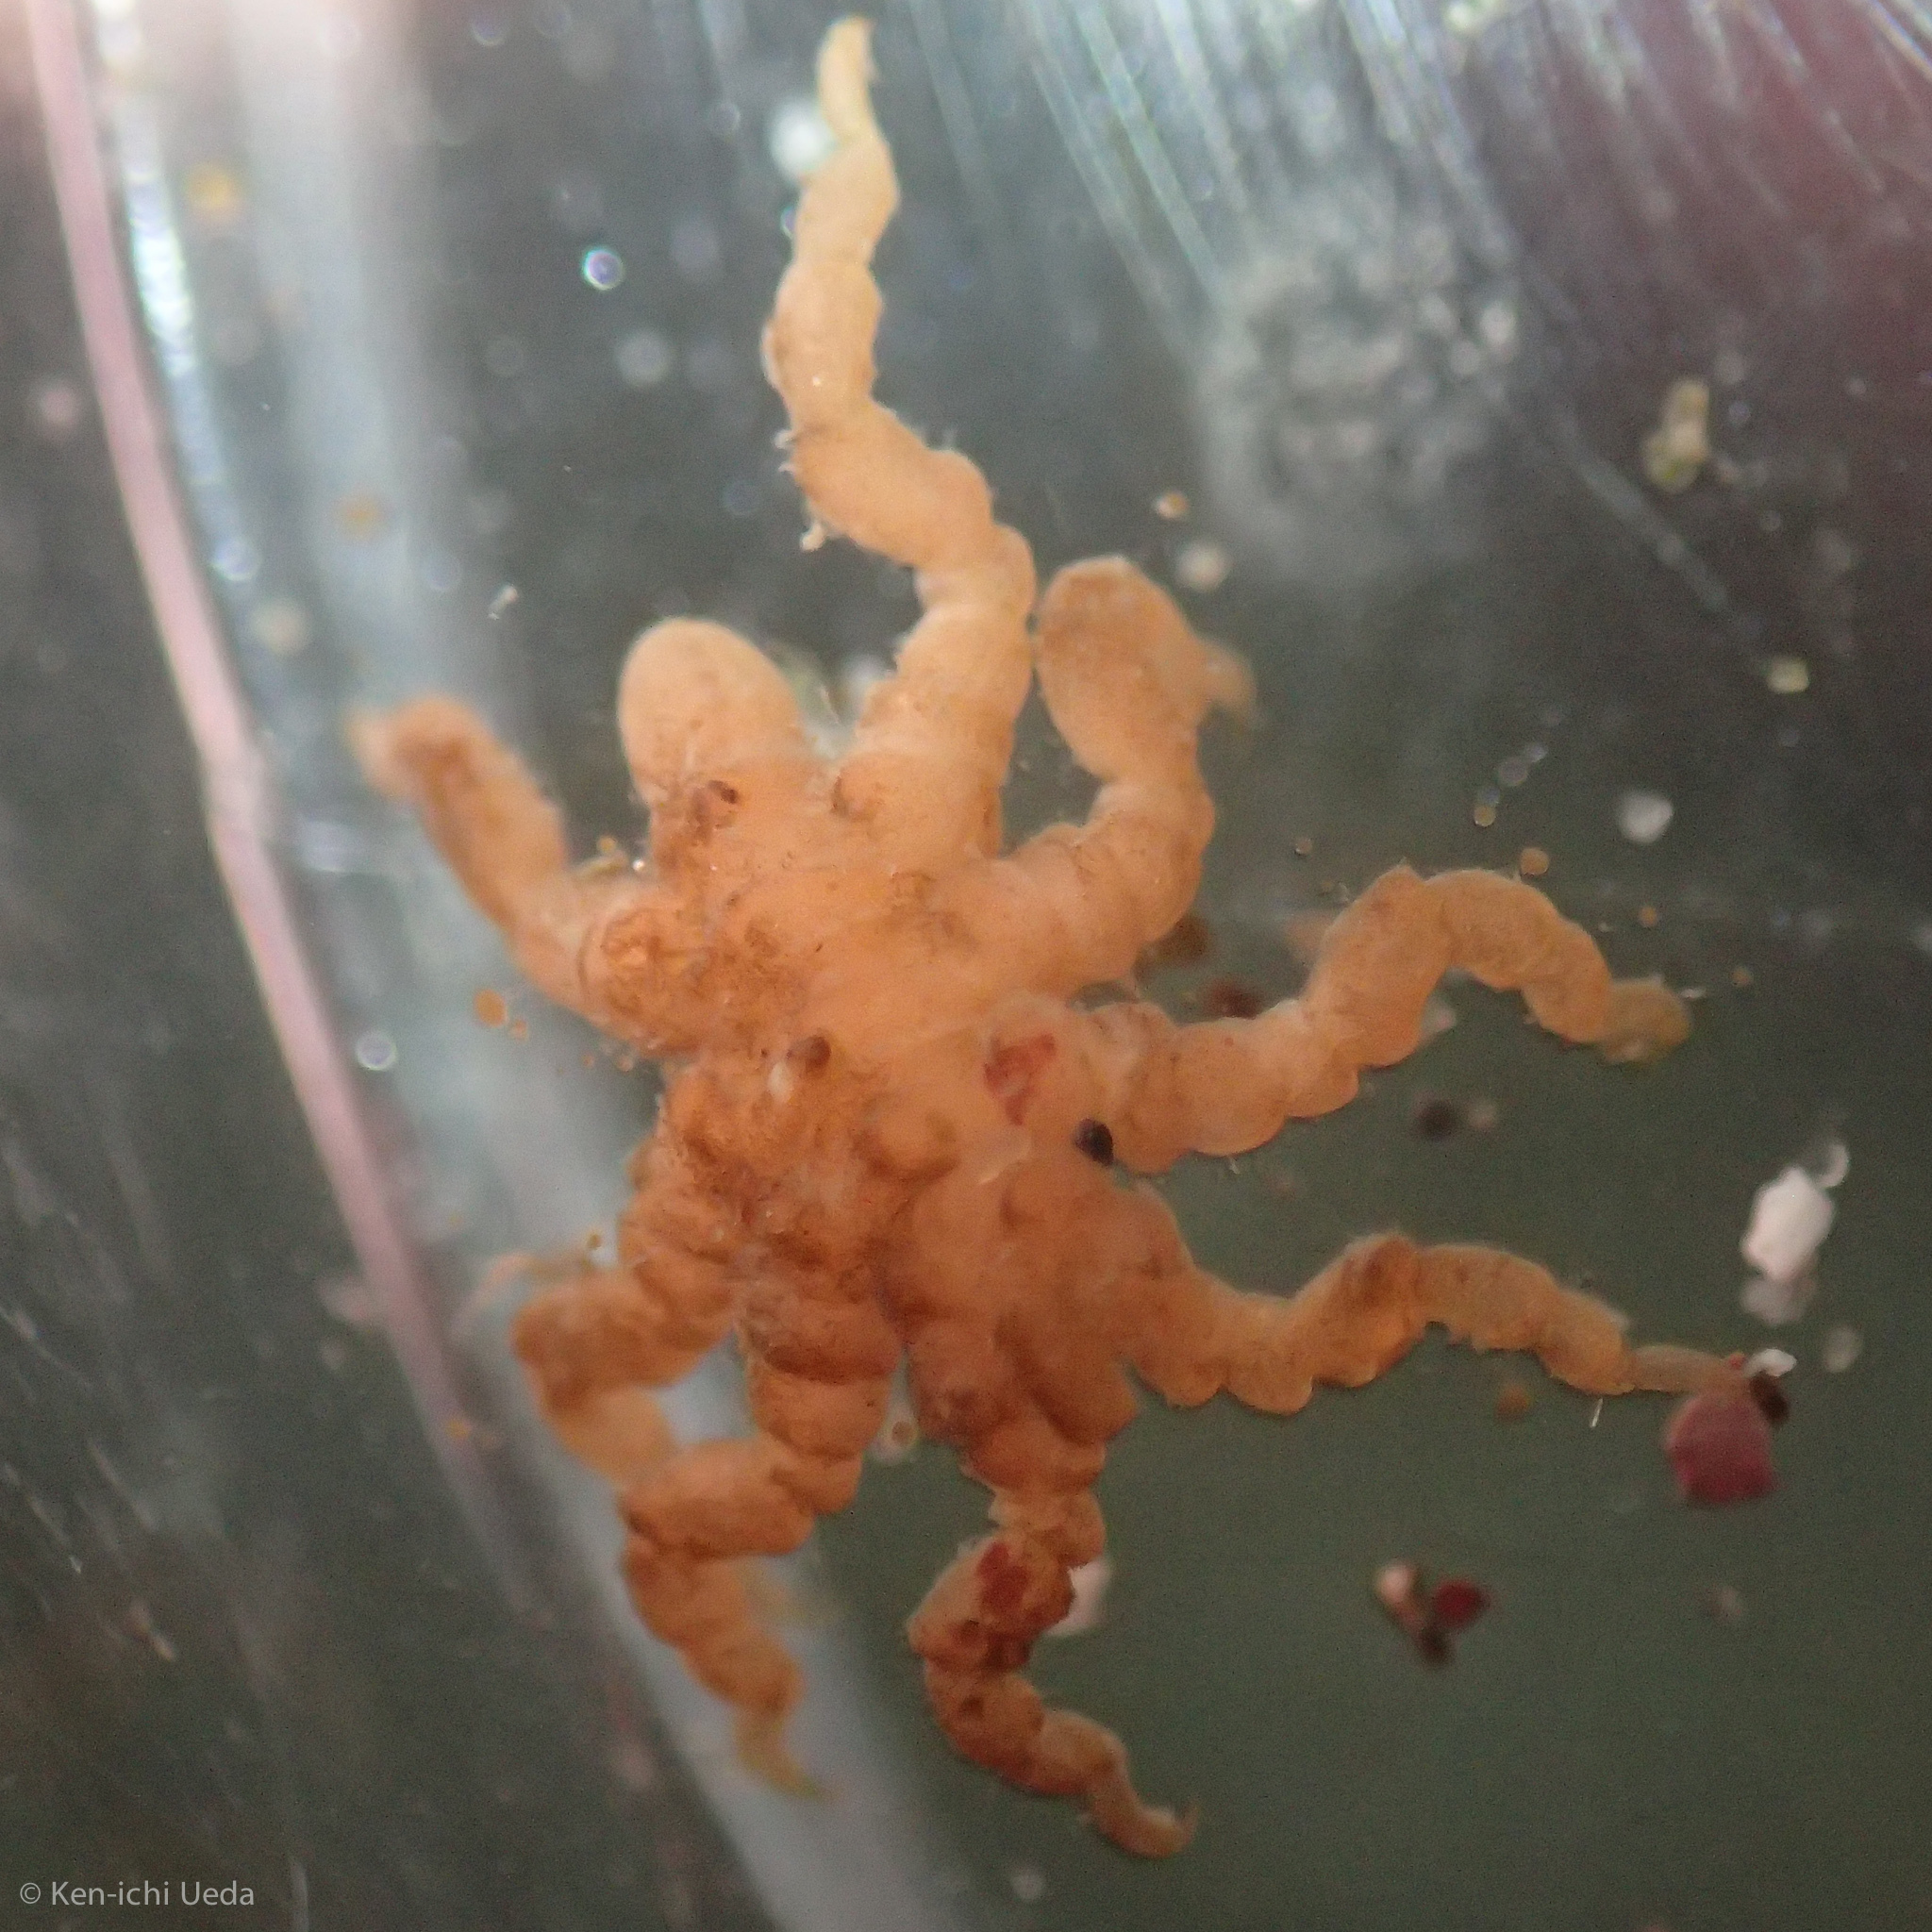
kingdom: Animalia
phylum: Arthropoda
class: Pycnogonida
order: Pantopoda
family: Pycnogonidae
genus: Pycnogonum
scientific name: Pycnogonum stearnsi
